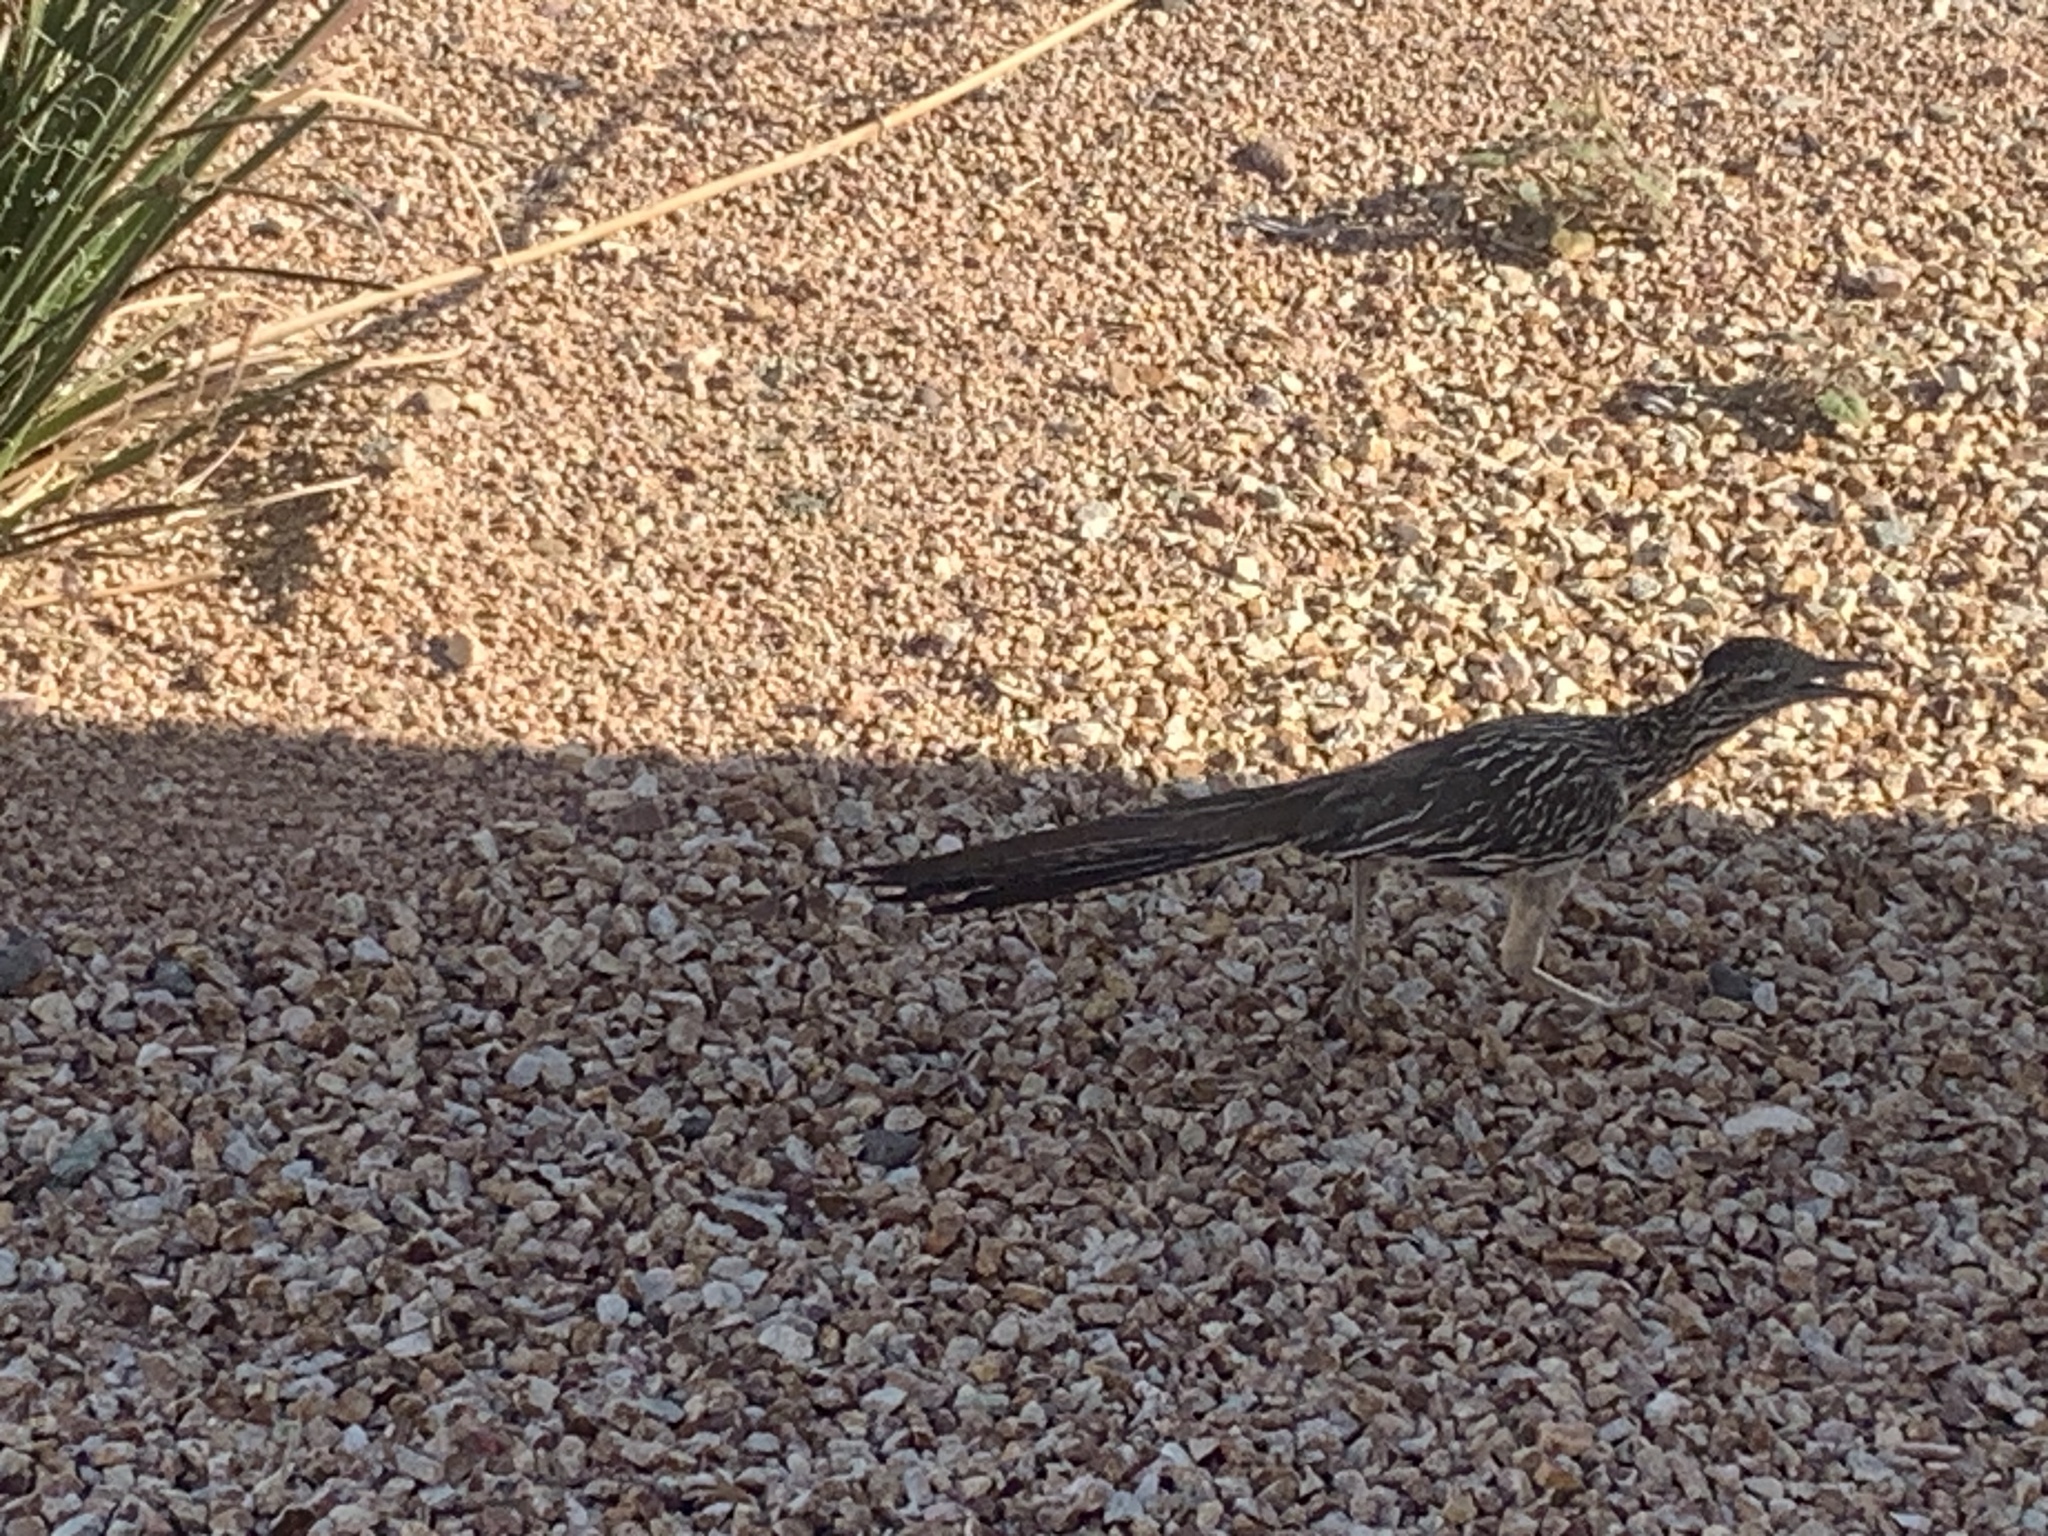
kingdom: Animalia
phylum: Chordata
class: Aves
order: Cuculiformes
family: Cuculidae
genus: Geococcyx
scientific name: Geococcyx californianus
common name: Greater roadrunner
